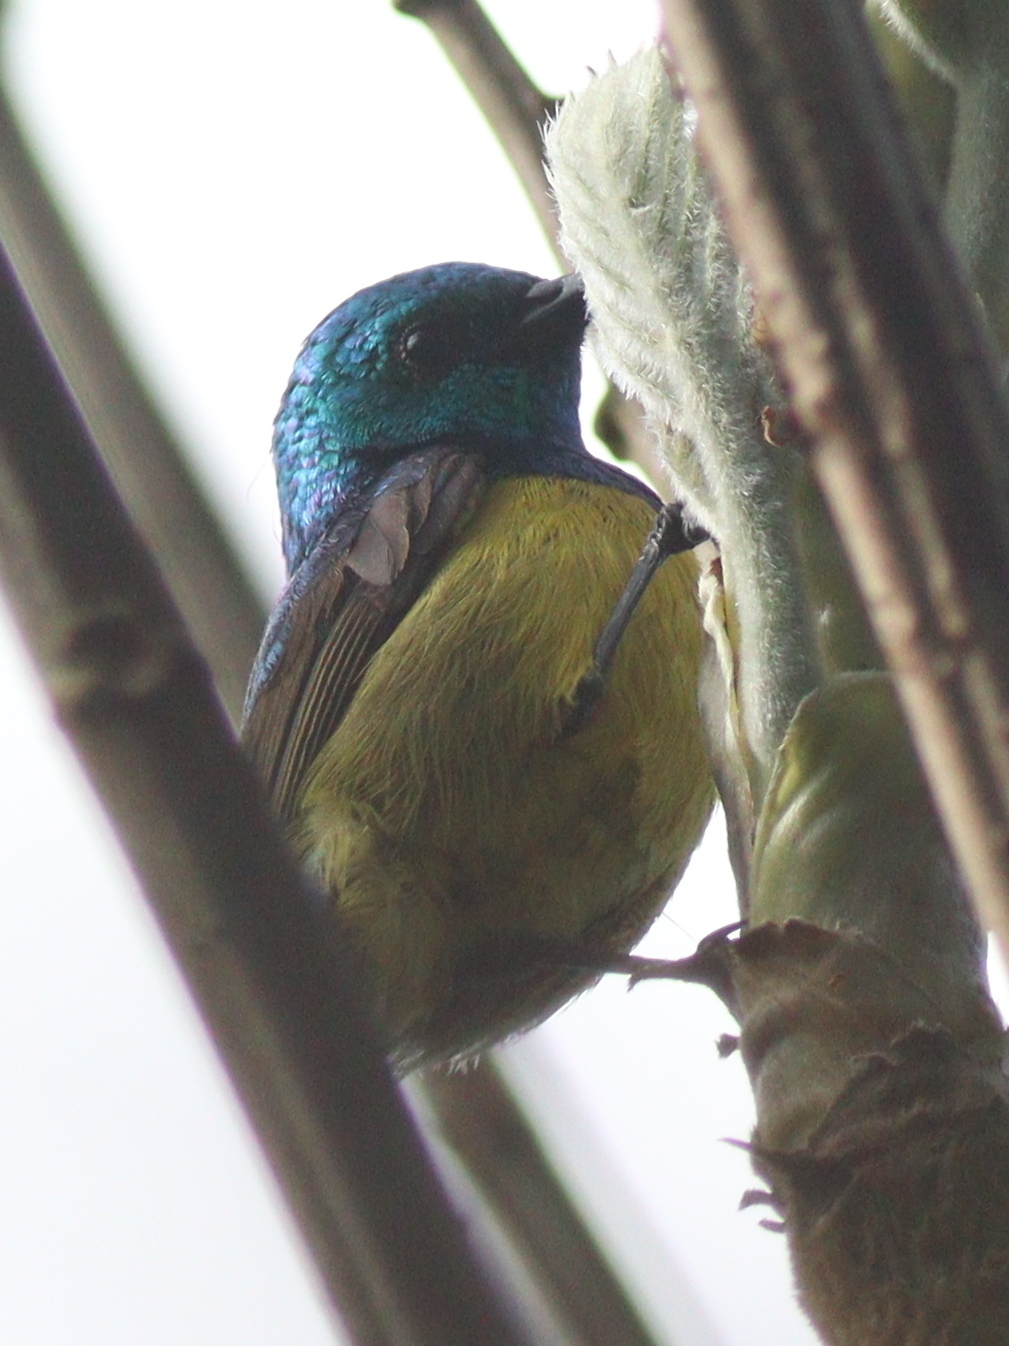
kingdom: Animalia
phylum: Chordata
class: Aves
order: Passeriformes
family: Nectariniidae
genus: Hedydipna
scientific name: Hedydipna collaris
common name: Collared sunbird
